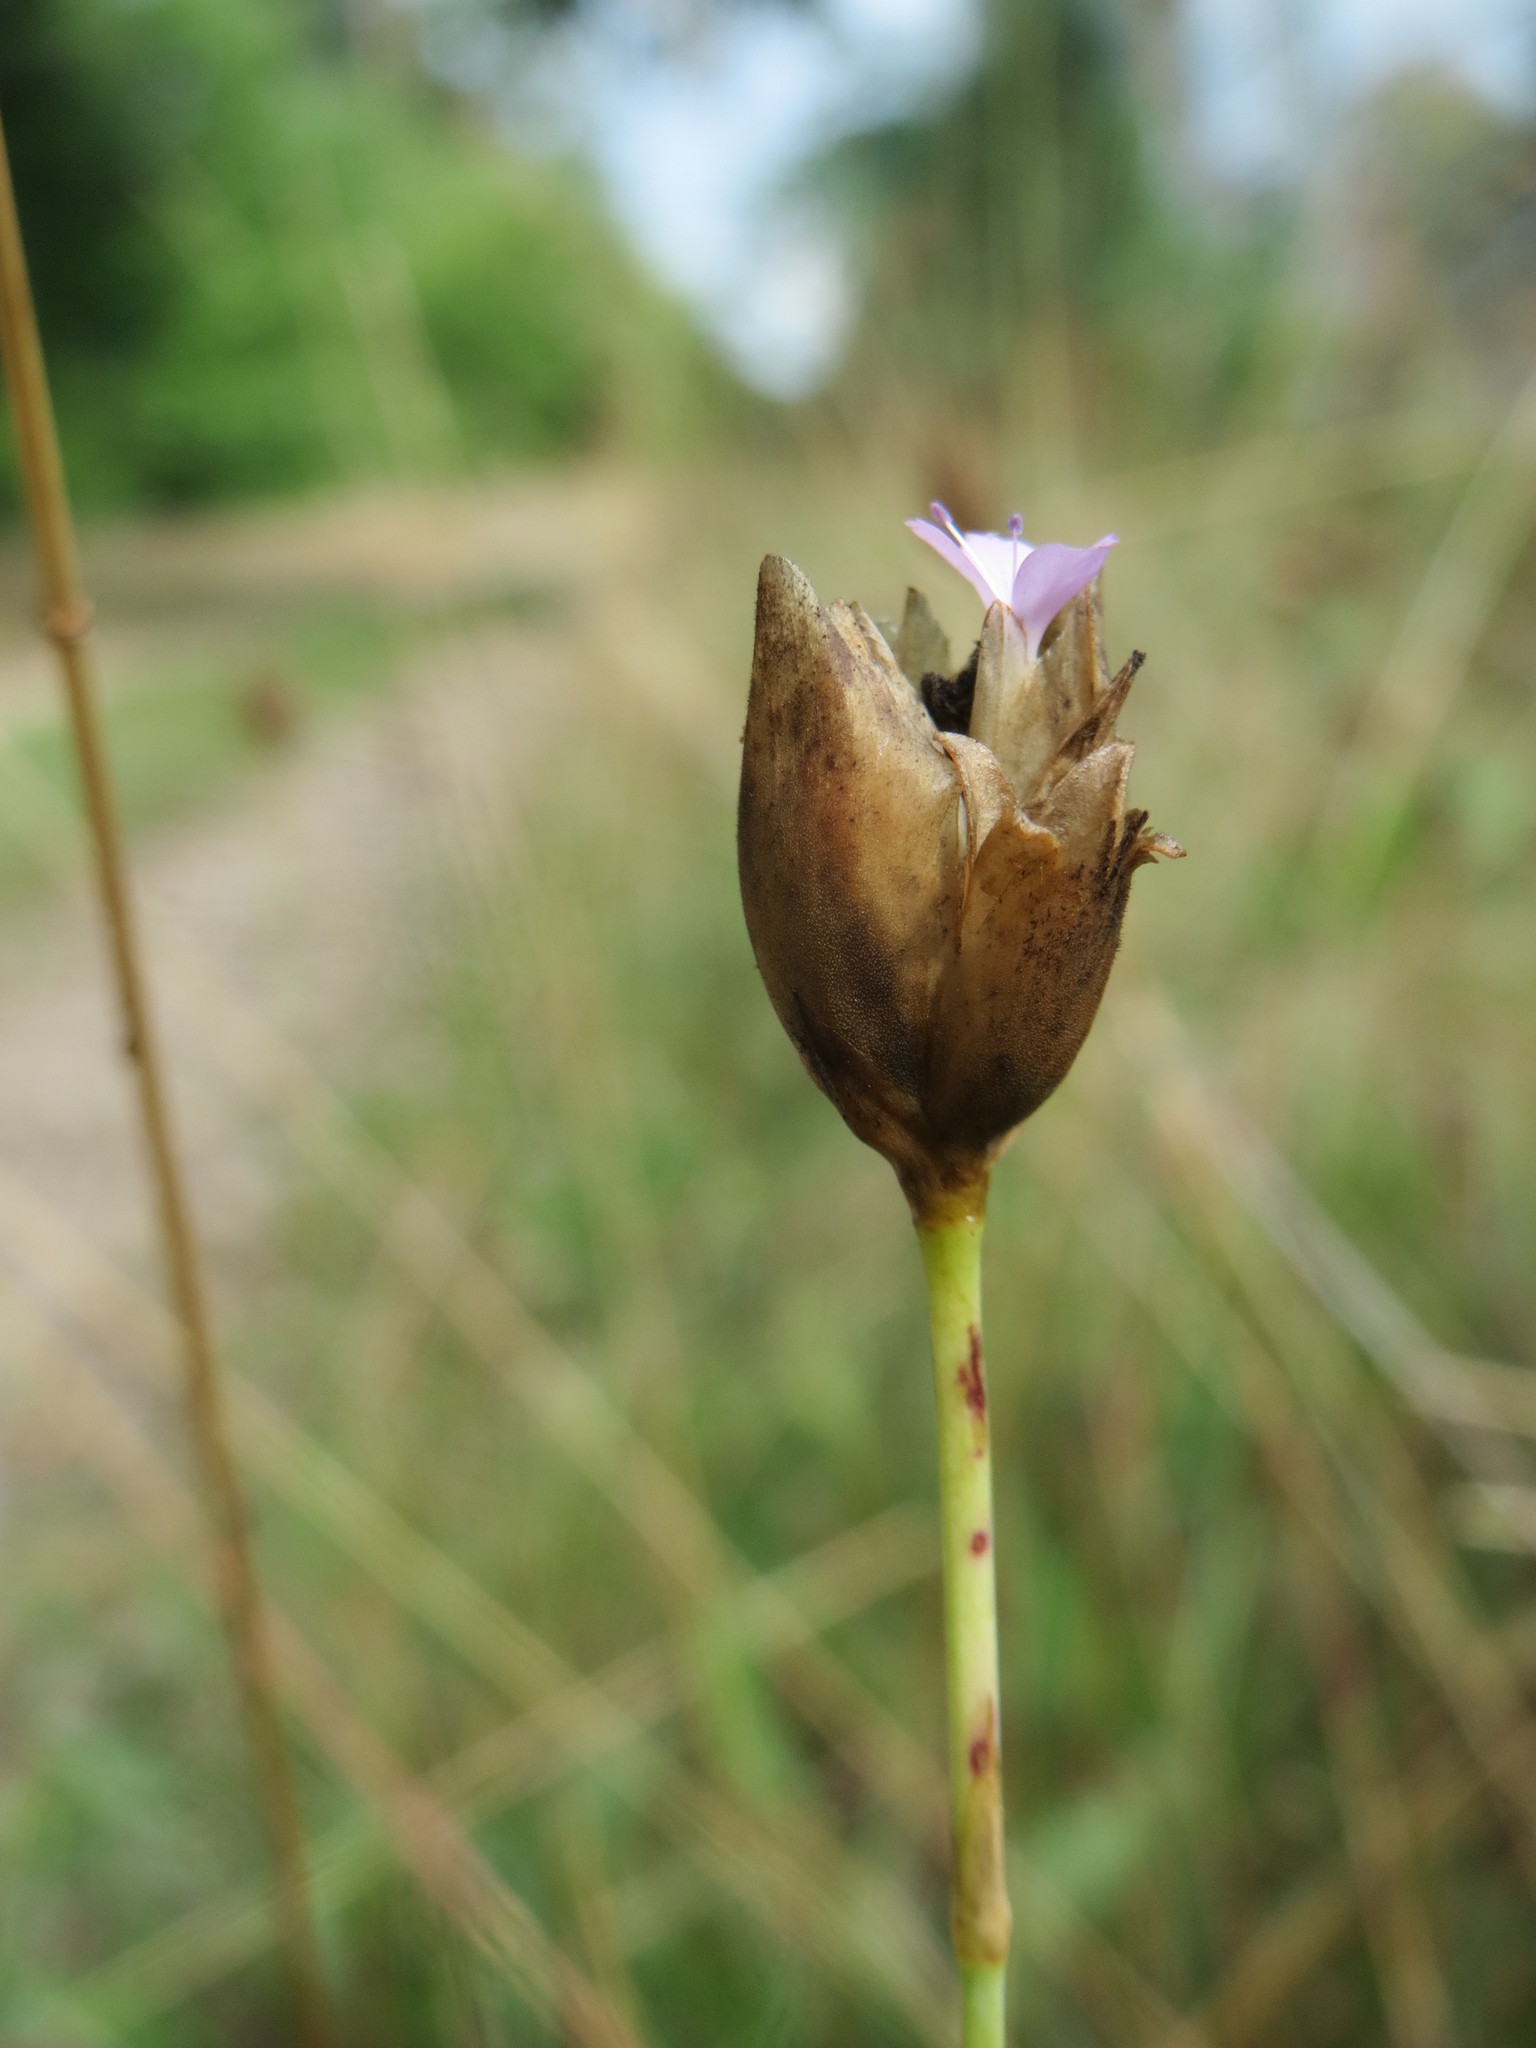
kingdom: Plantae
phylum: Tracheophyta
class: Magnoliopsida
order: Caryophyllales
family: Caryophyllaceae
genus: Petrorhagia
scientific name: Petrorhagia prolifera
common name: Proliferous pink
